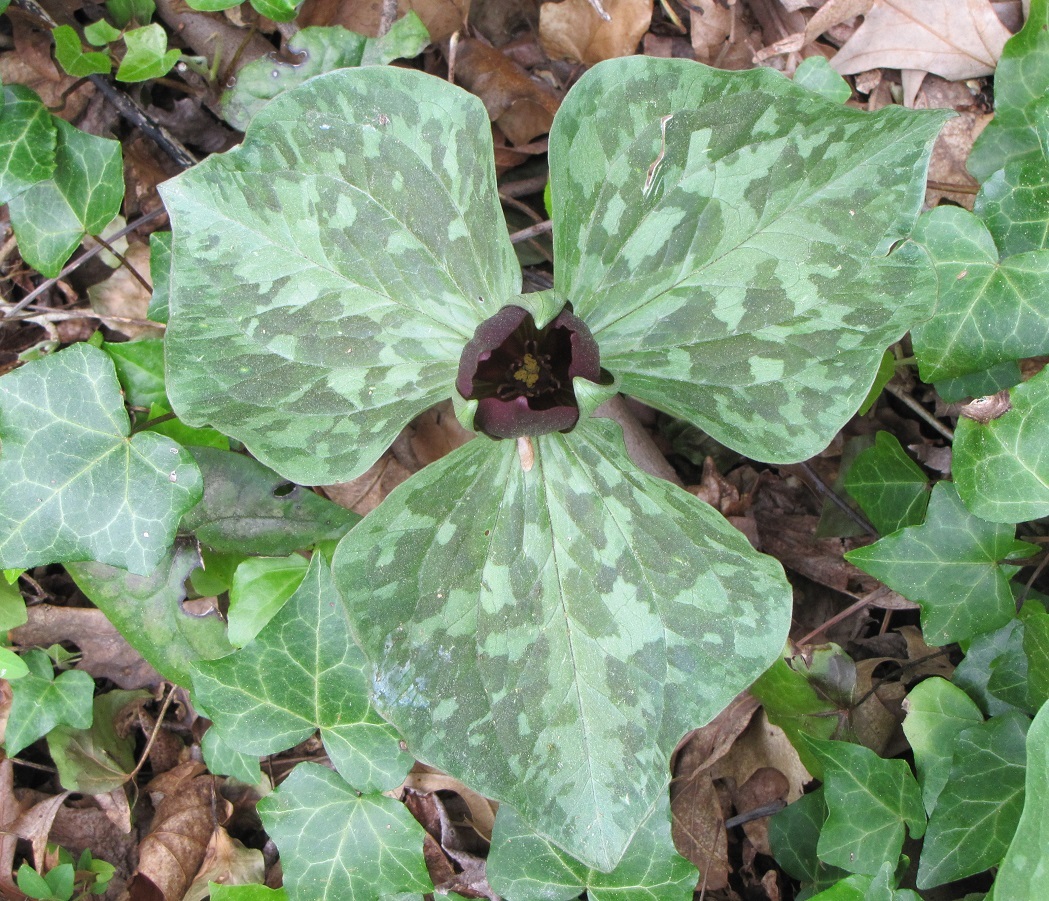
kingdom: Plantae
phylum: Tracheophyta
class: Liliopsida
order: Liliales
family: Melanthiaceae
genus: Trillium
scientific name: Trillium cuneatum
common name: Cuneate trillium
